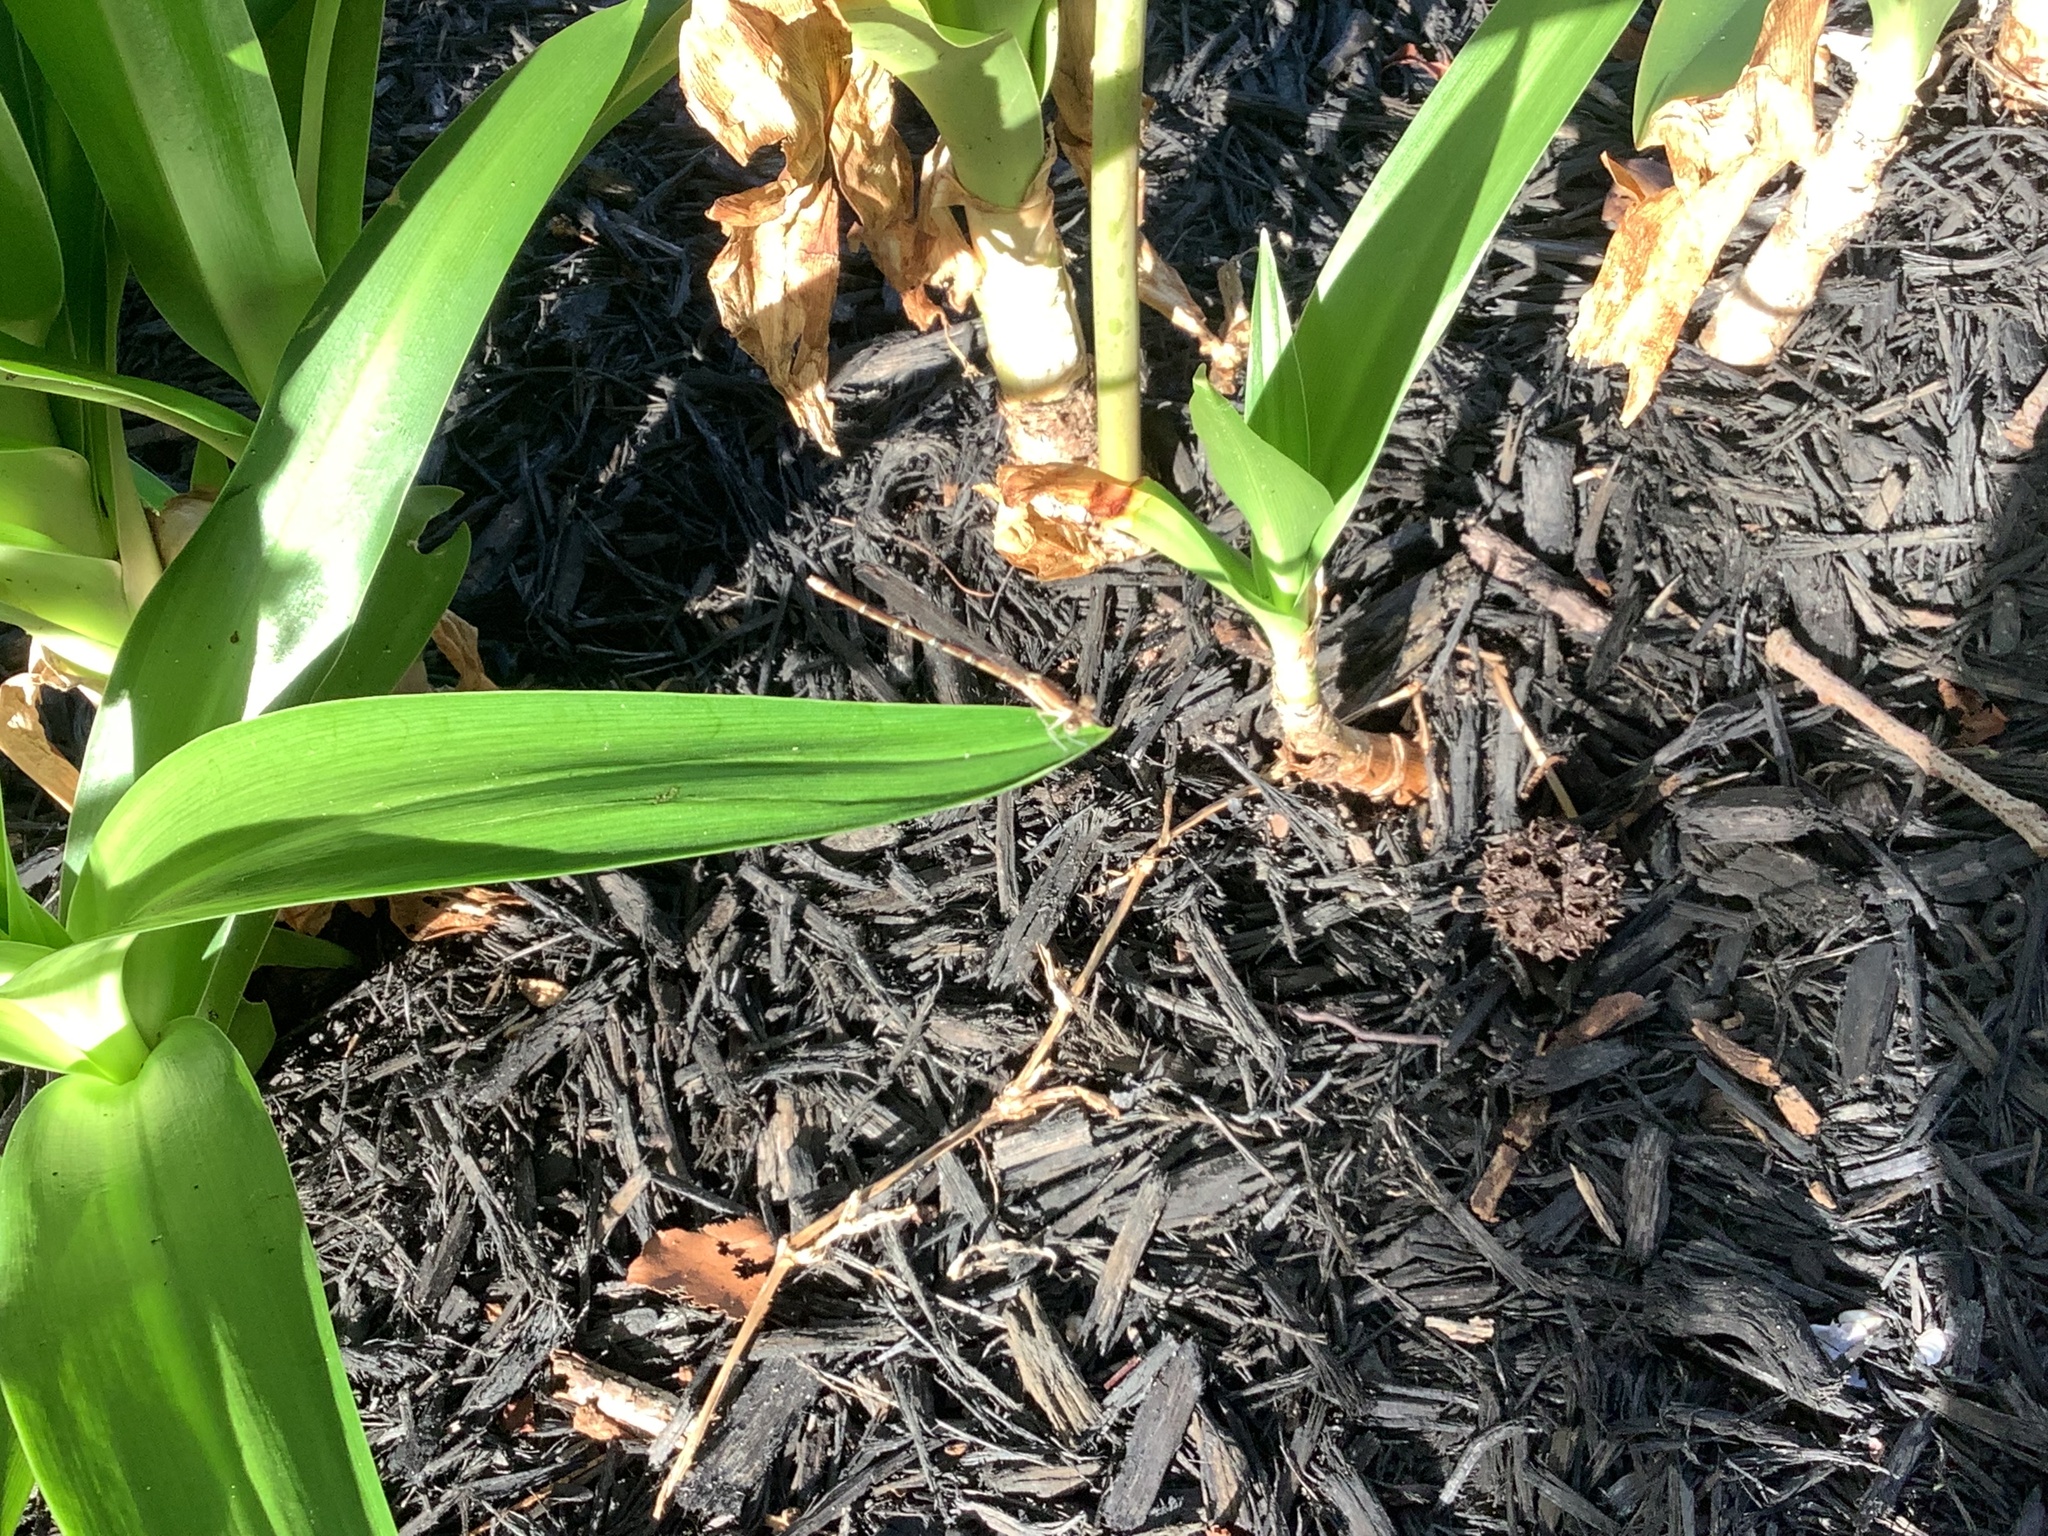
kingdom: Animalia
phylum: Arthropoda
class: Insecta
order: Odonata
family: Coenagrionidae
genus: Argia
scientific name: Argia sedula
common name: Blue-ringed dancer
